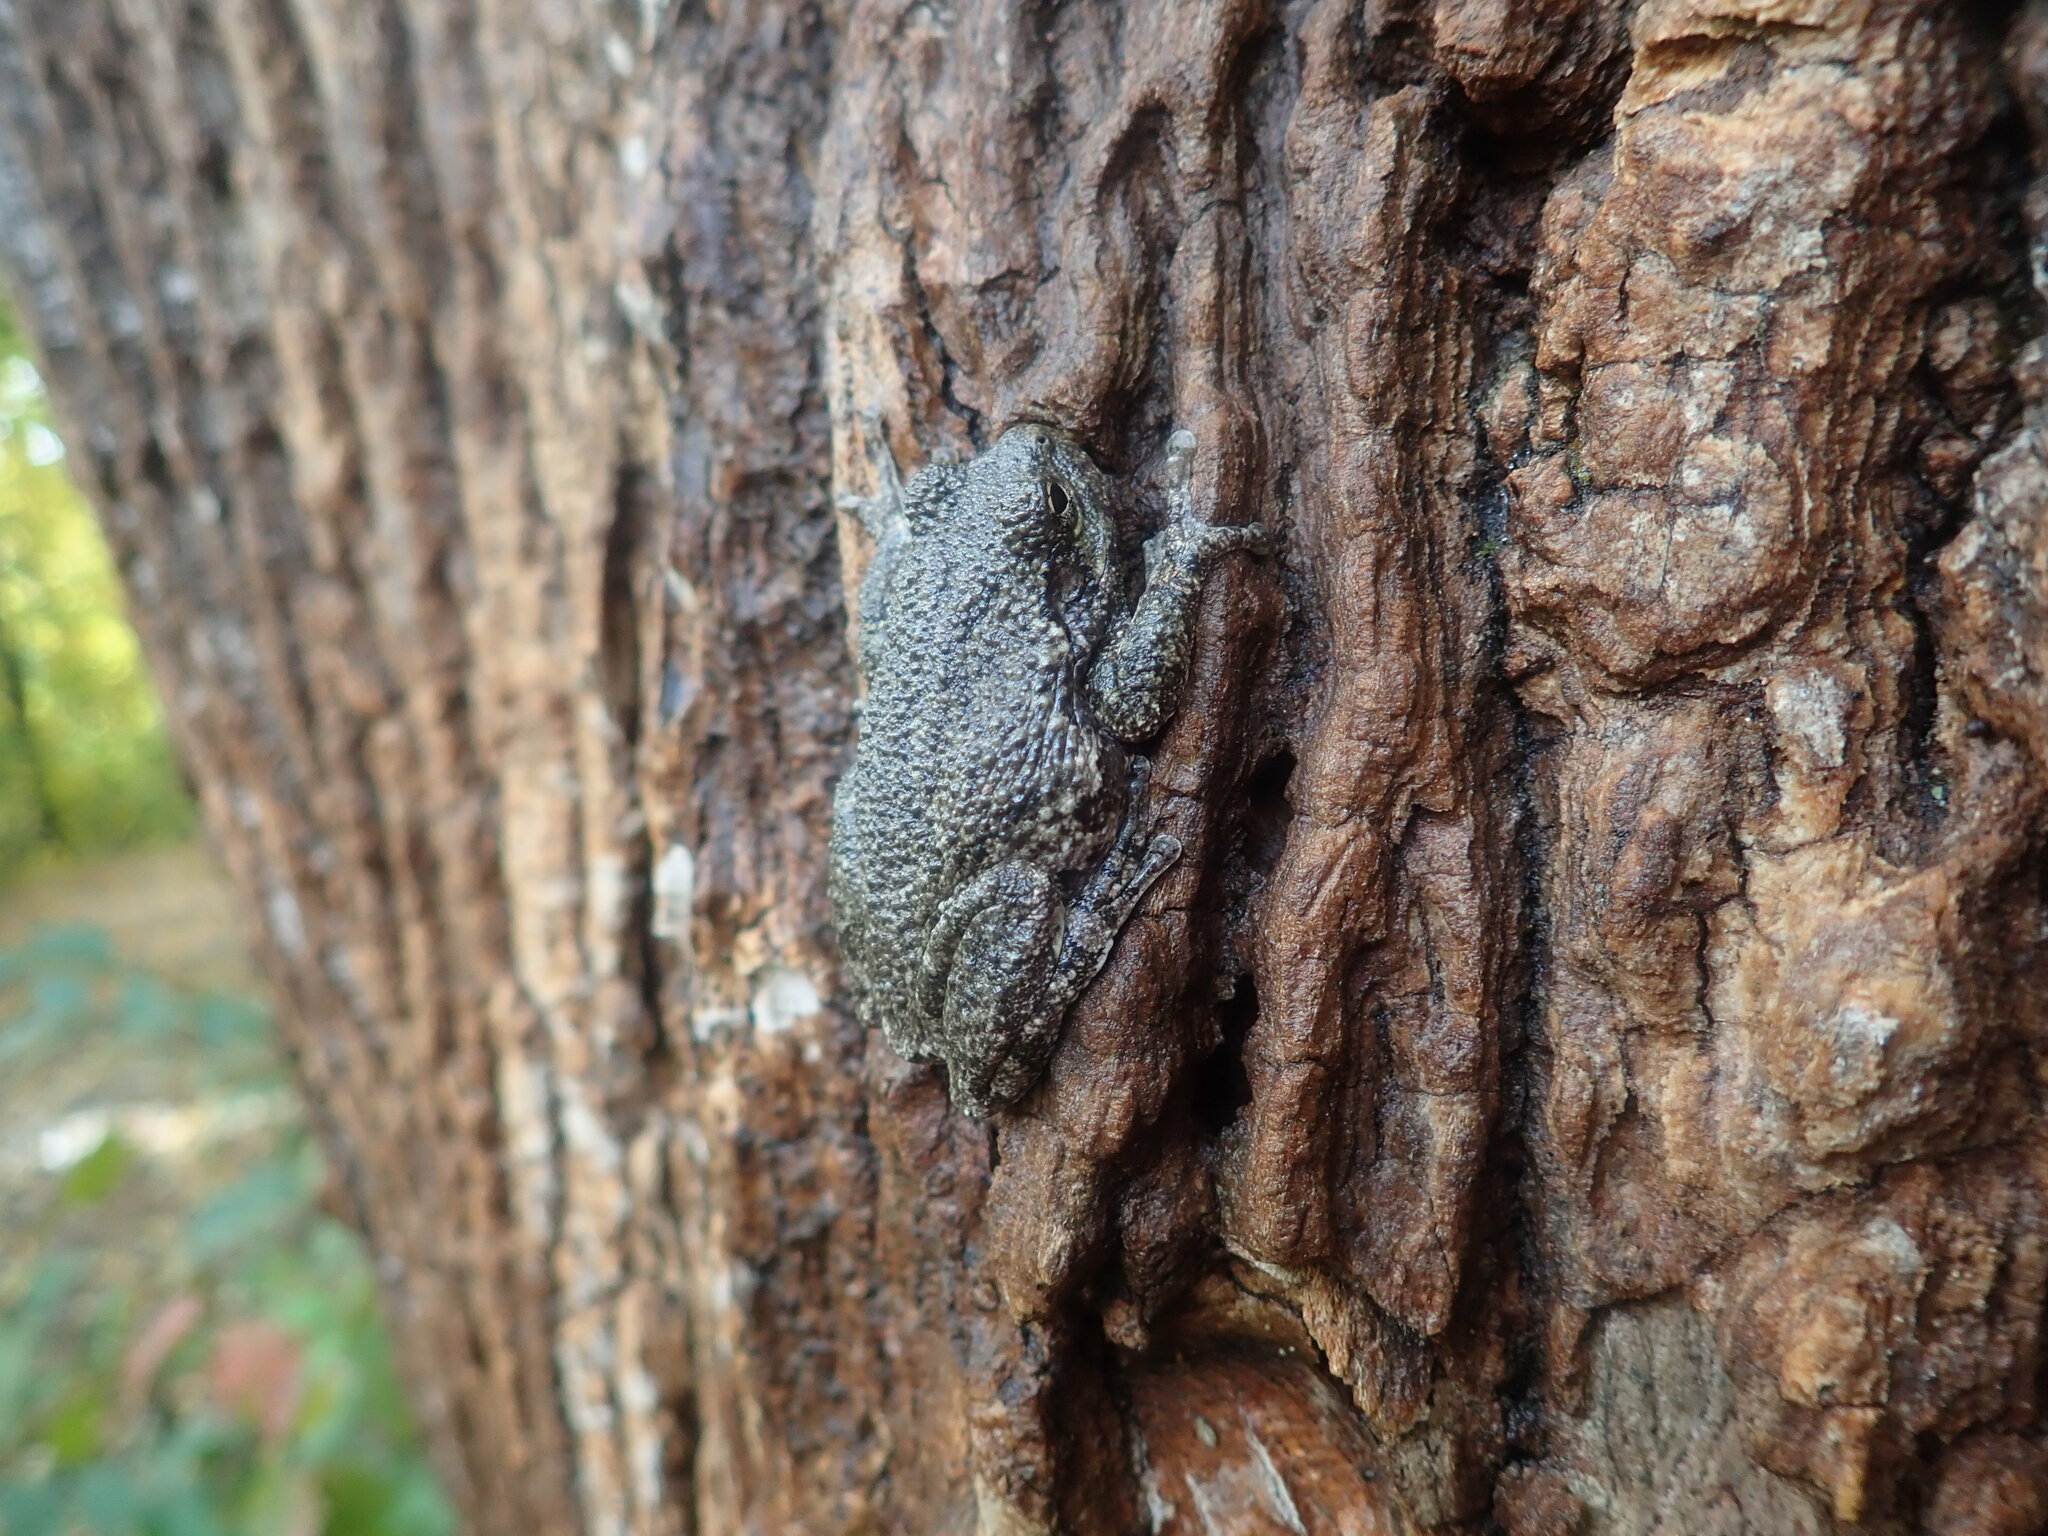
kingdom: Animalia
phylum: Chordata
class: Amphibia
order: Anura
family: Hylidae
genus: Dryophytes
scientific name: Dryophytes versicolor
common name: Gray treefrog
